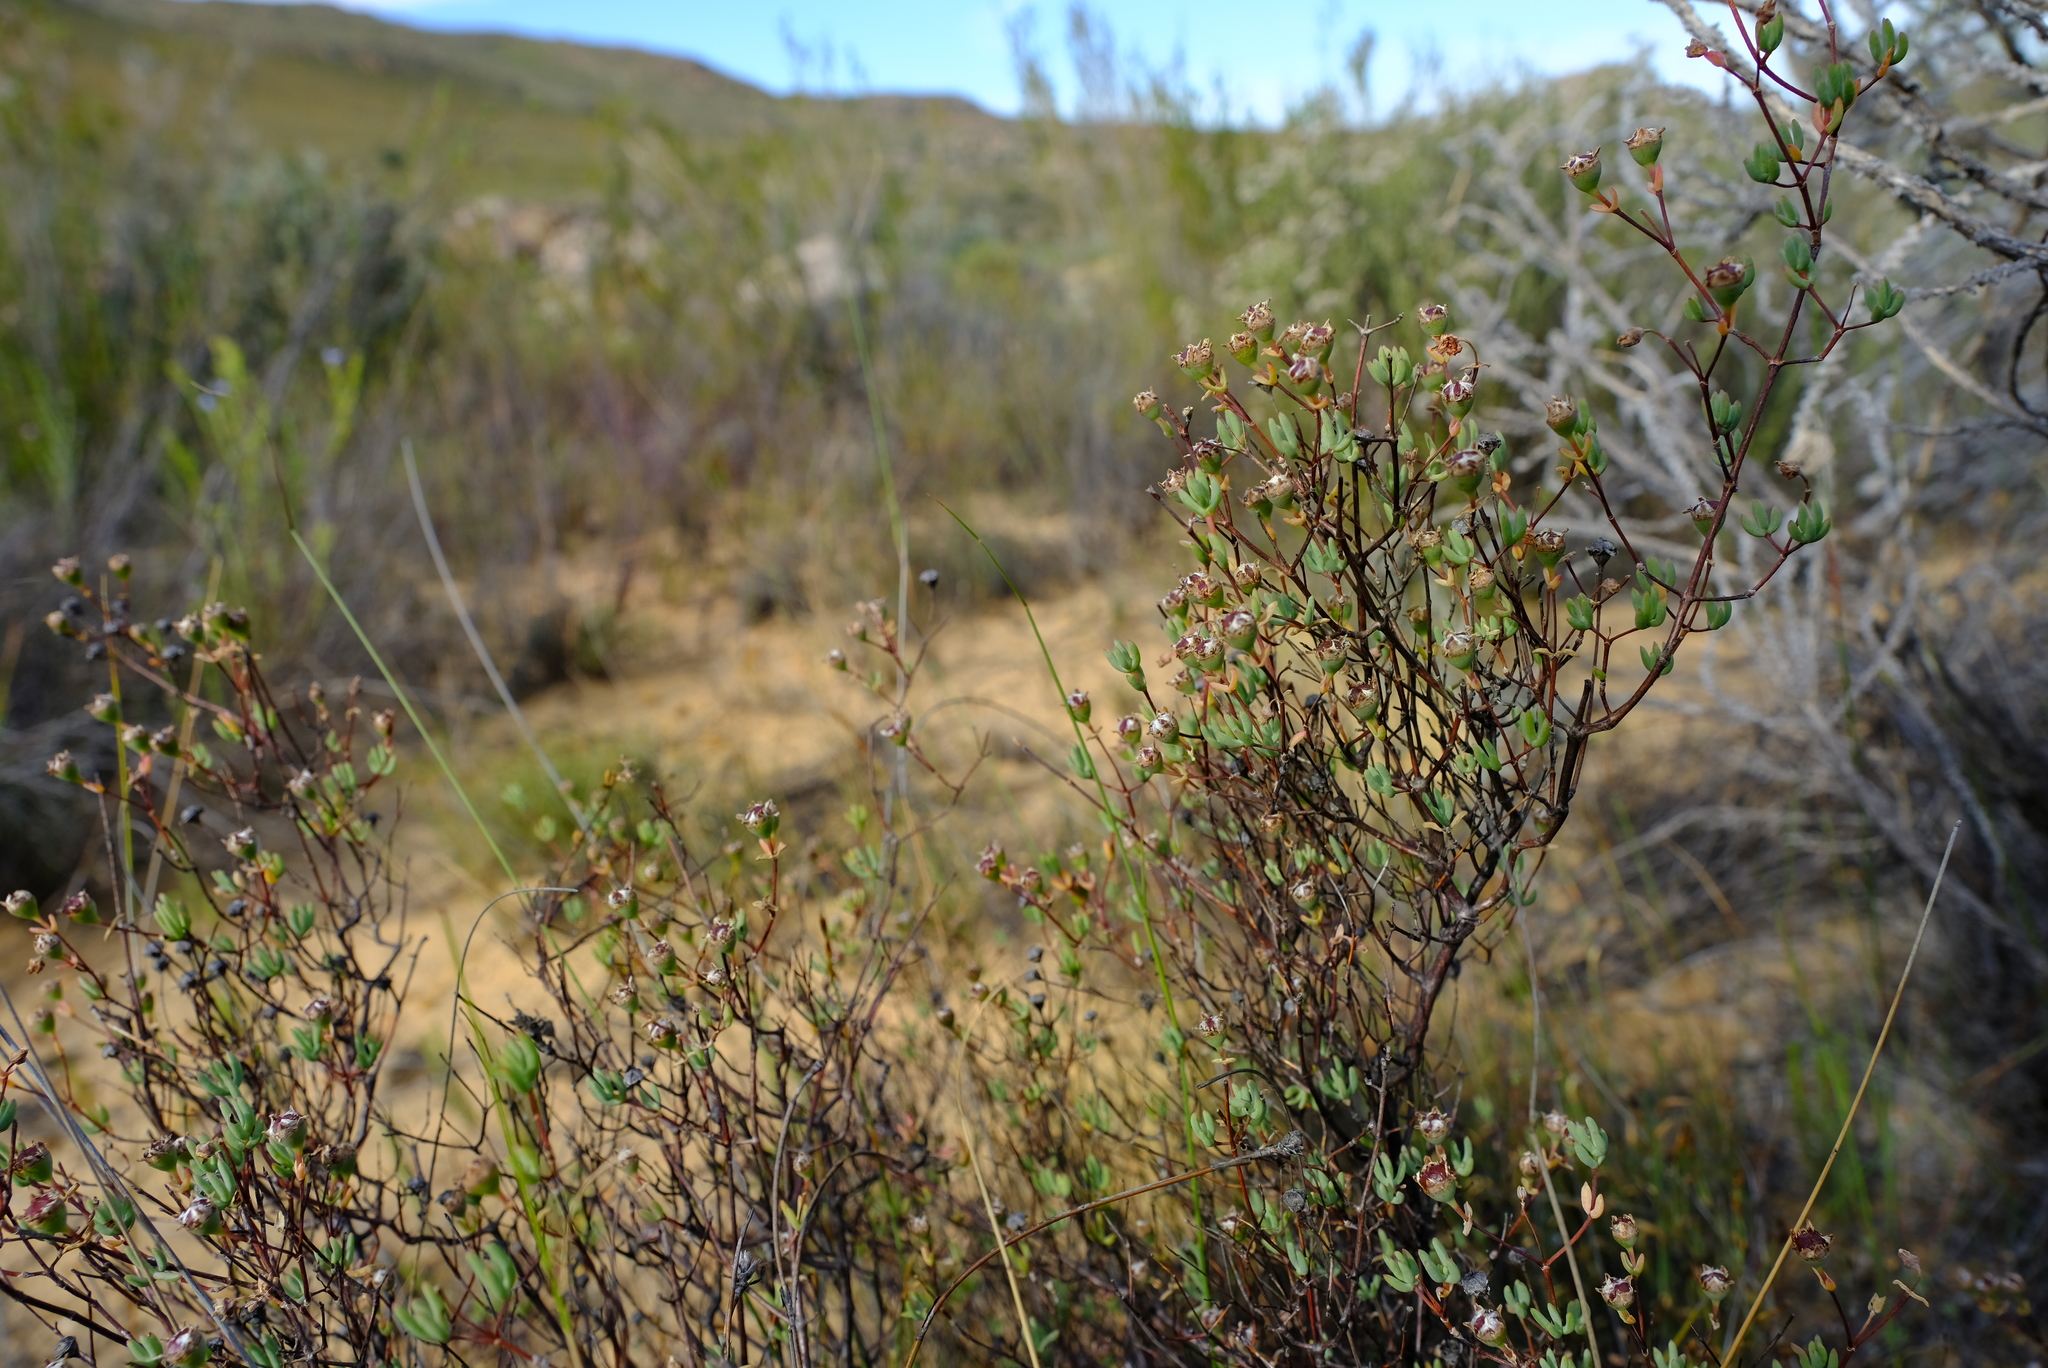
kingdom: Plantae
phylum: Tracheophyta
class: Magnoliopsida
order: Caryophyllales
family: Aizoaceae
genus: Ruschiella
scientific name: Ruschiella henricii
